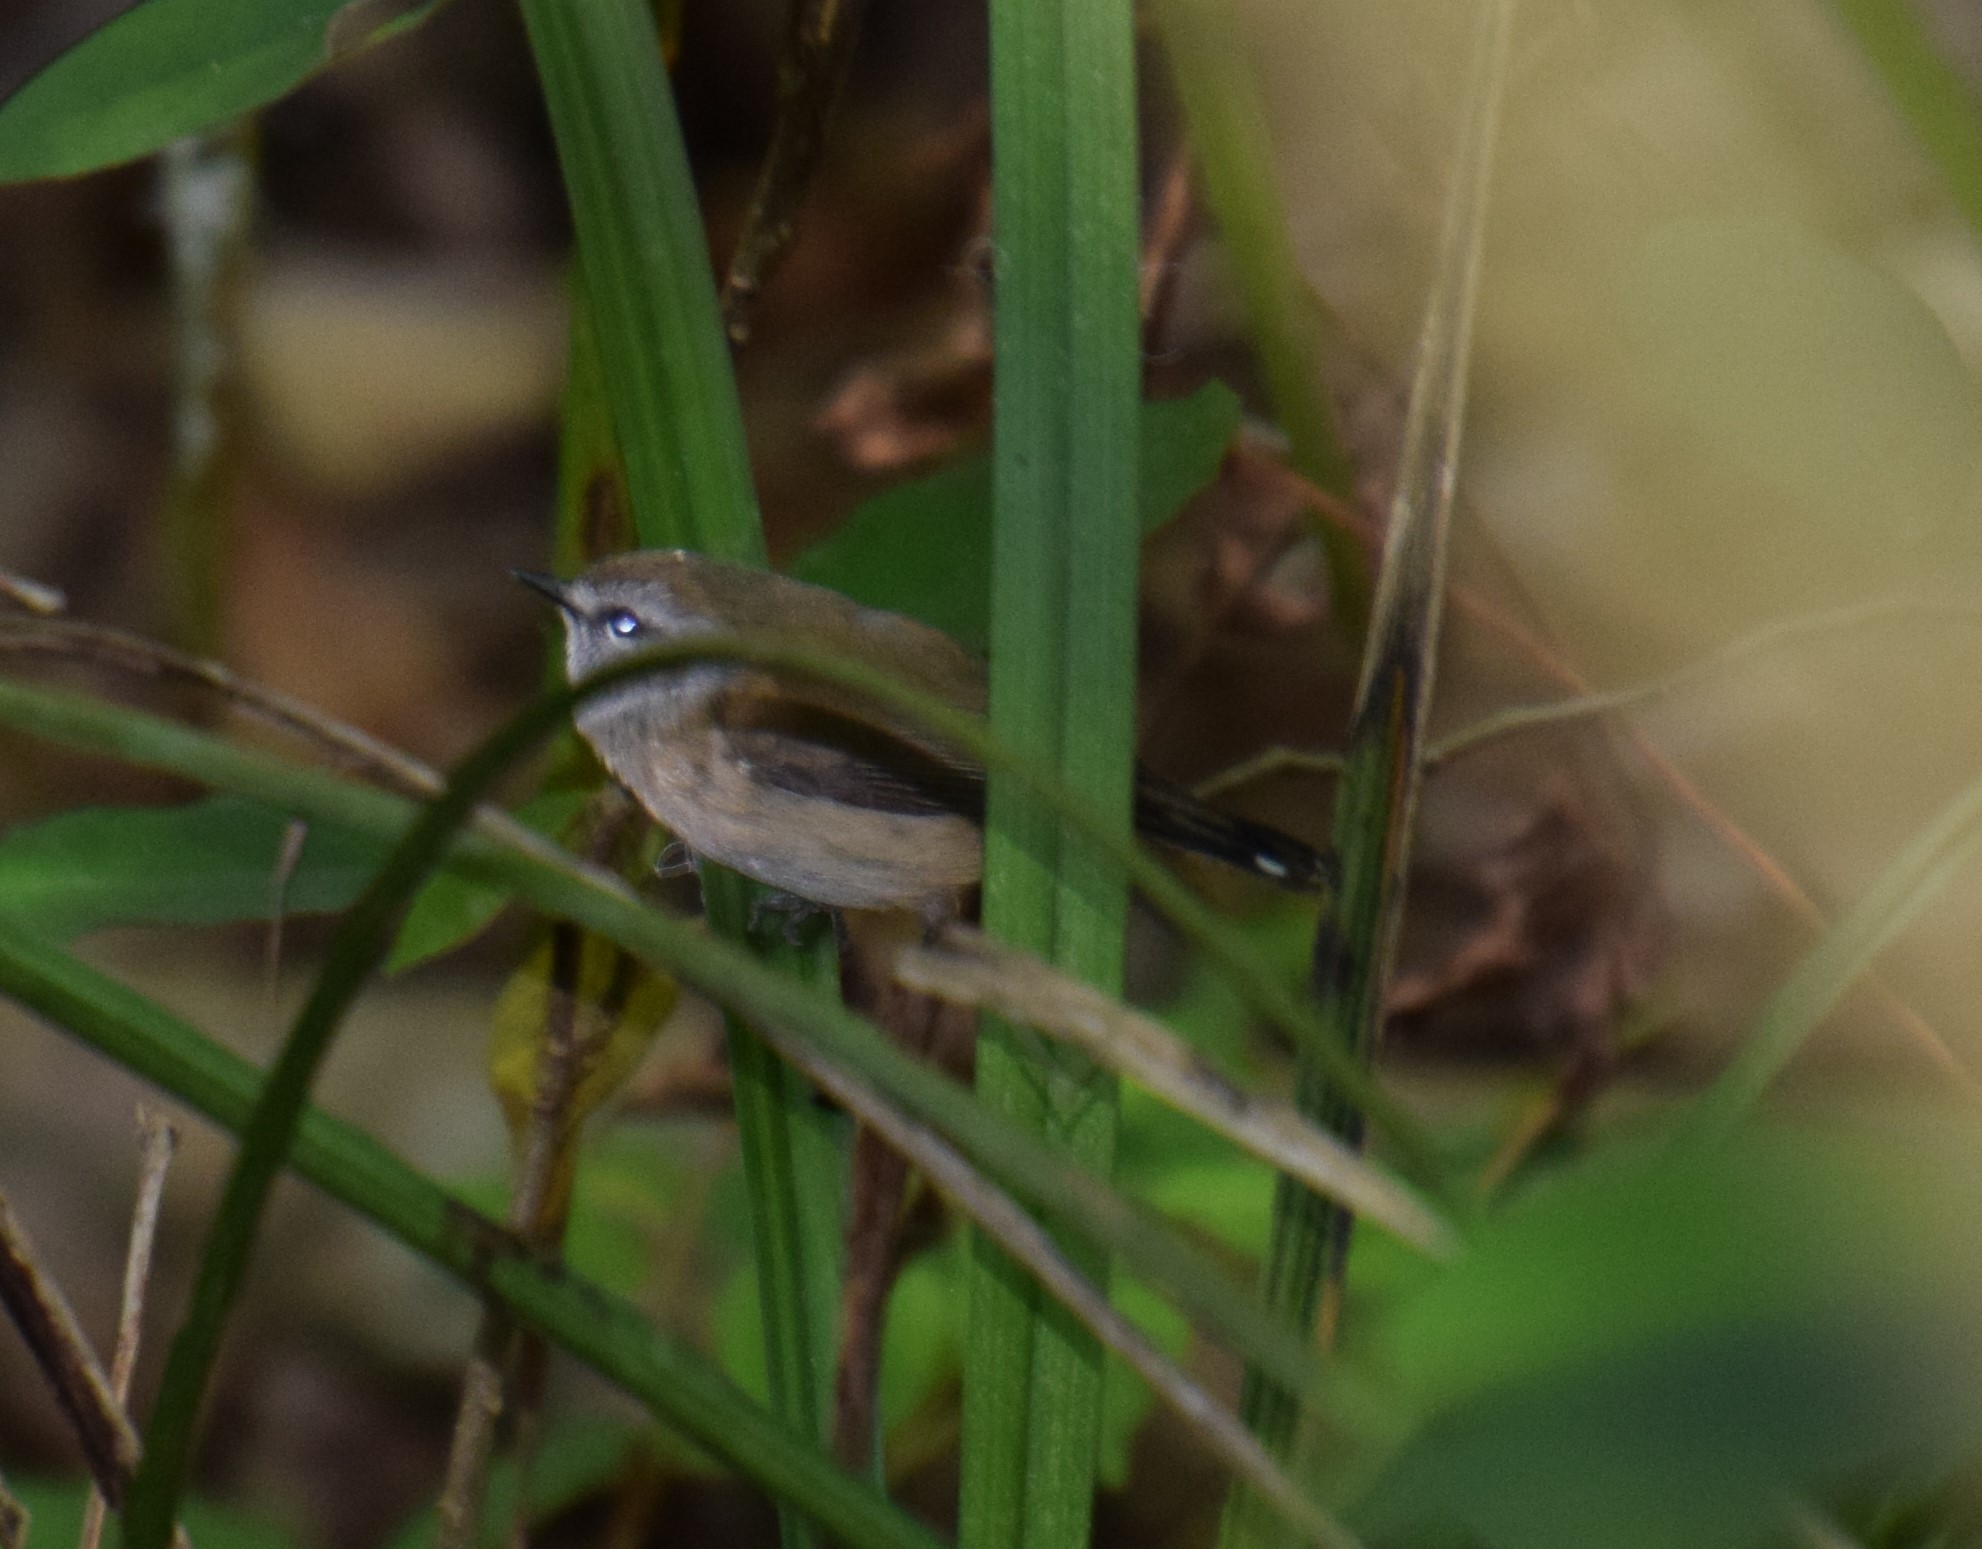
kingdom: Animalia
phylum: Chordata
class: Aves
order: Passeriformes
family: Acanthizidae
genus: Gerygone
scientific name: Gerygone mouki
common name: Brown gerygone
